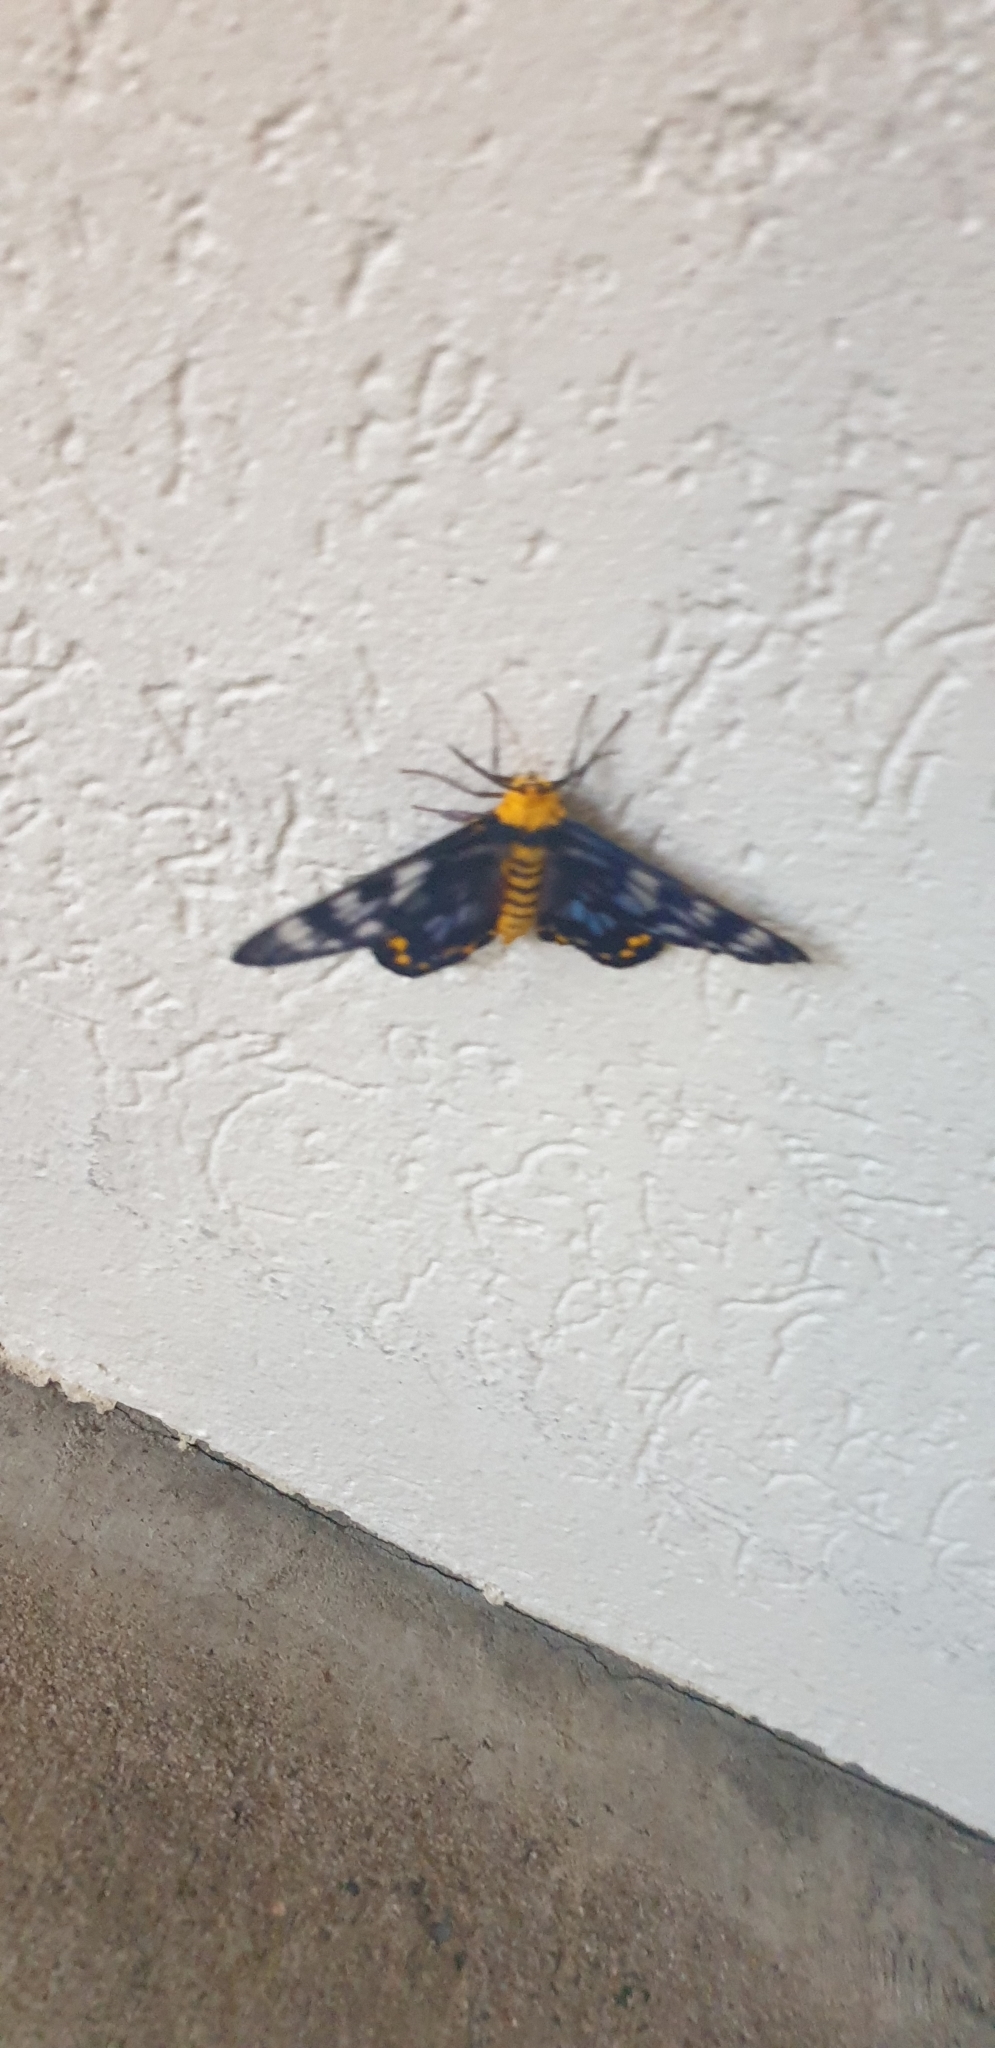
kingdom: Animalia
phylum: Arthropoda
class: Insecta
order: Lepidoptera
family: Geometridae
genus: Dysphania
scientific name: Dysphania numana
